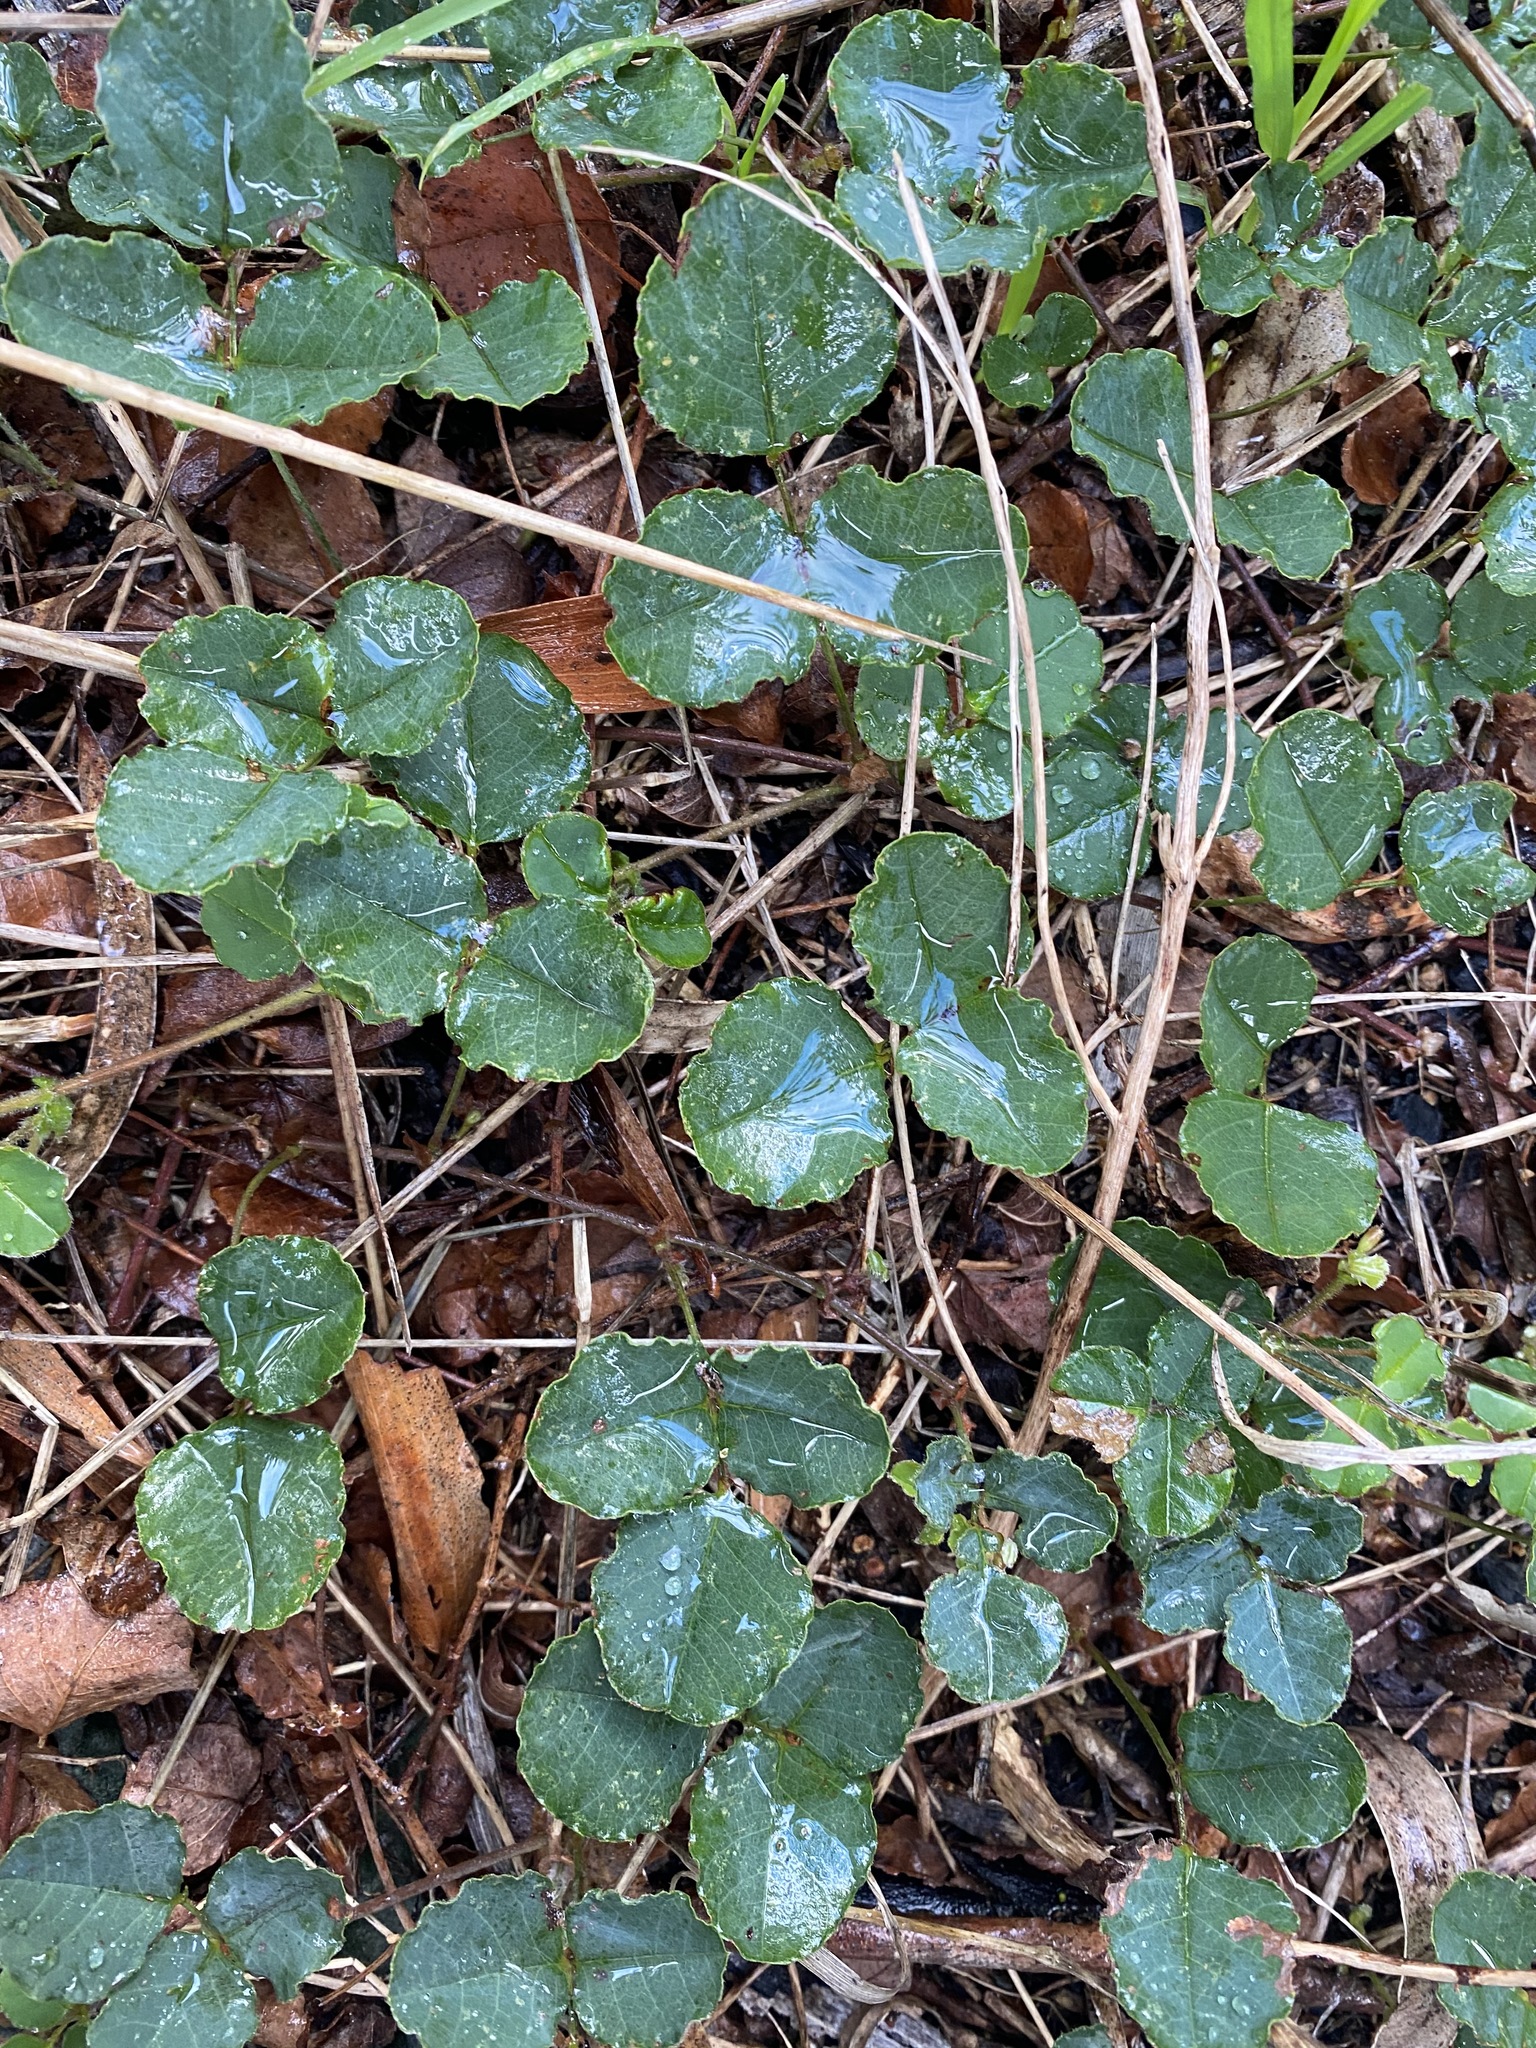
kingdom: Plantae
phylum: Tracheophyta
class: Magnoliopsida
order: Fabales
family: Fabaceae
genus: Kennedia
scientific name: Kennedia prostrata
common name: Running-postman
